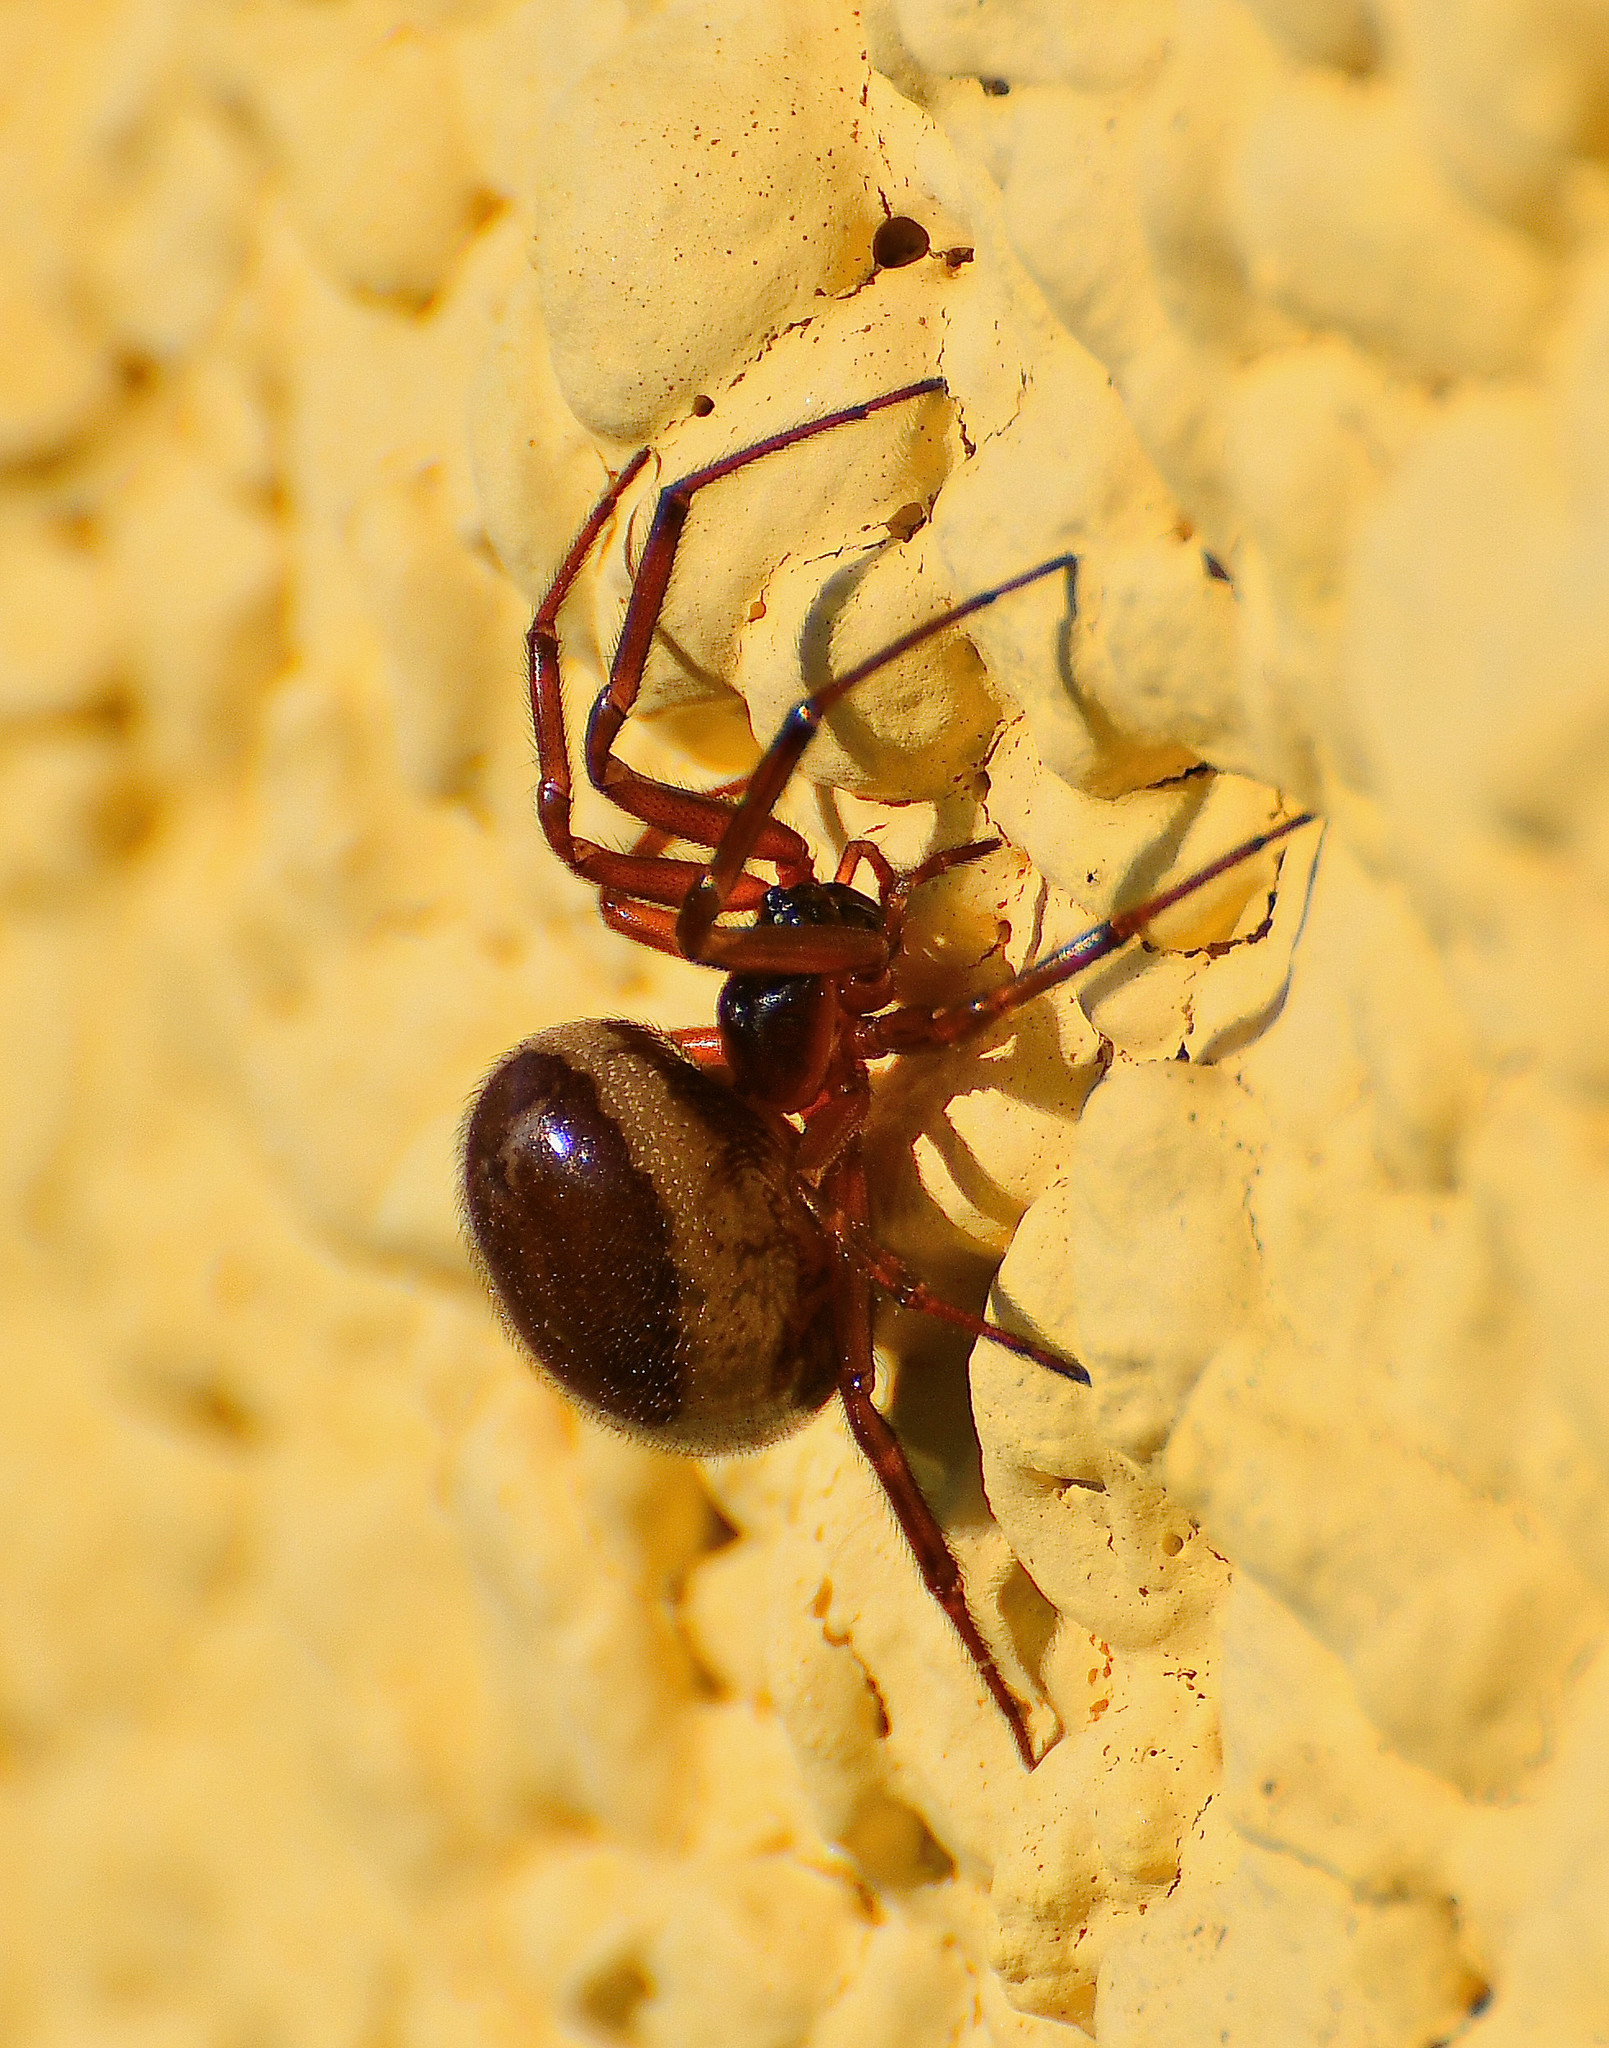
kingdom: Animalia
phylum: Arthropoda
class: Arachnida
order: Araneae
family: Theridiidae
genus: Steatoda
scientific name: Steatoda nobilis
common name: Cobweb weaver
